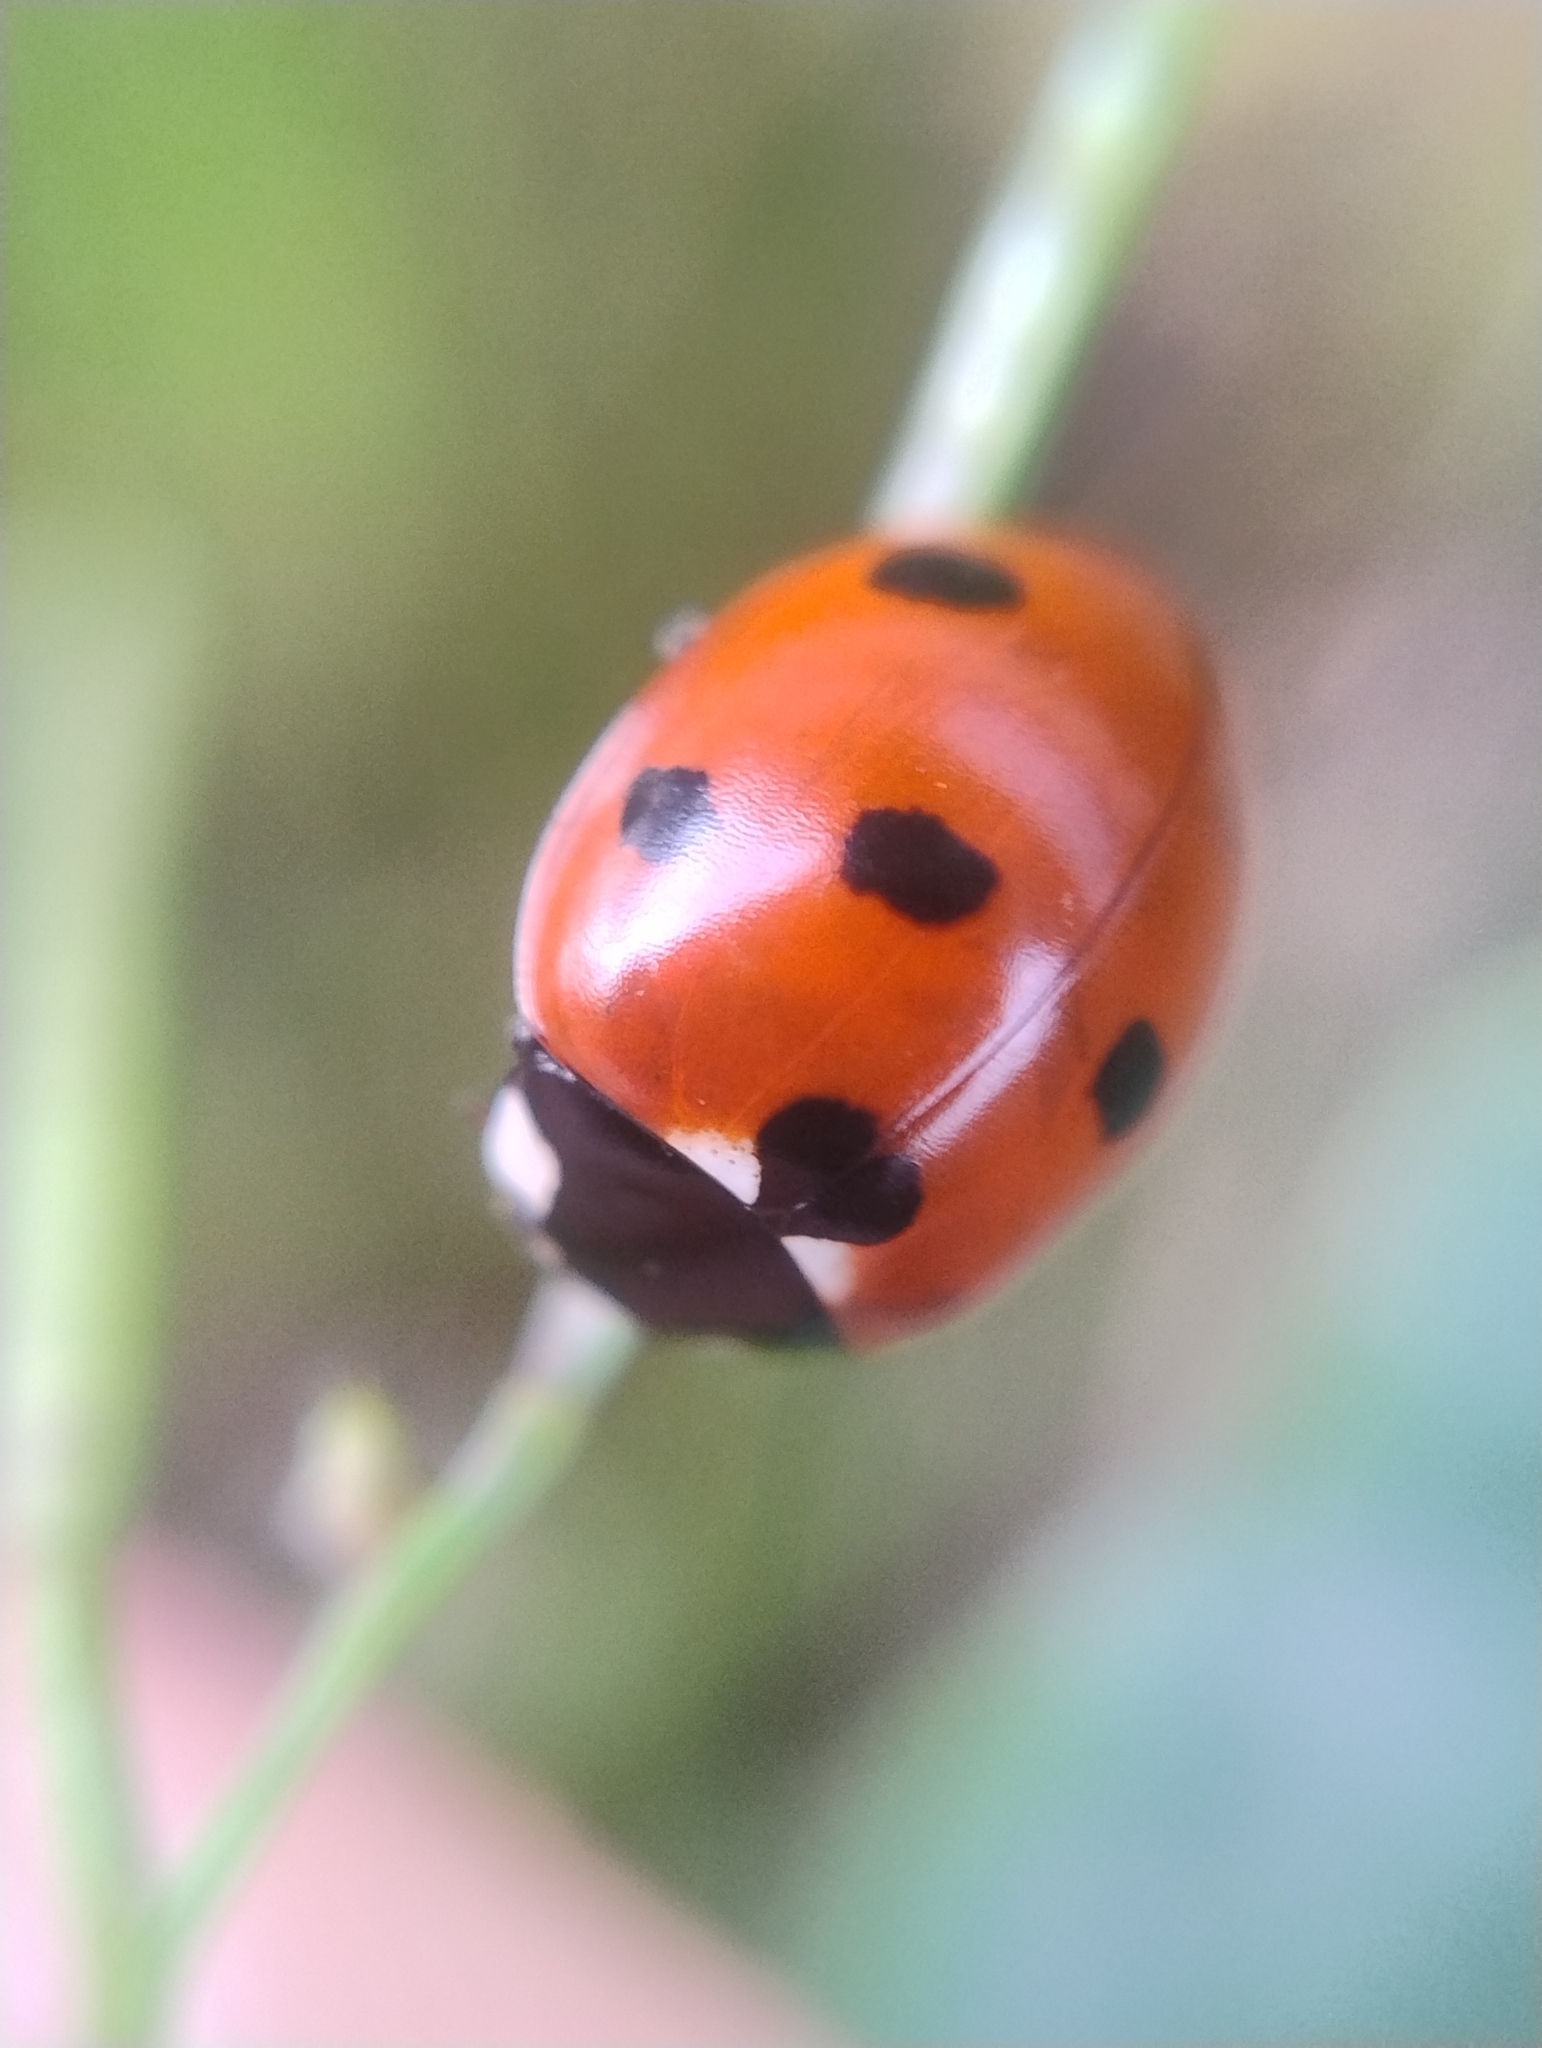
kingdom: Animalia
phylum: Arthropoda
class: Insecta
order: Coleoptera
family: Coccinellidae
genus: Coccinella
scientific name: Coccinella septempunctata
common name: Sevenspotted lady beetle
